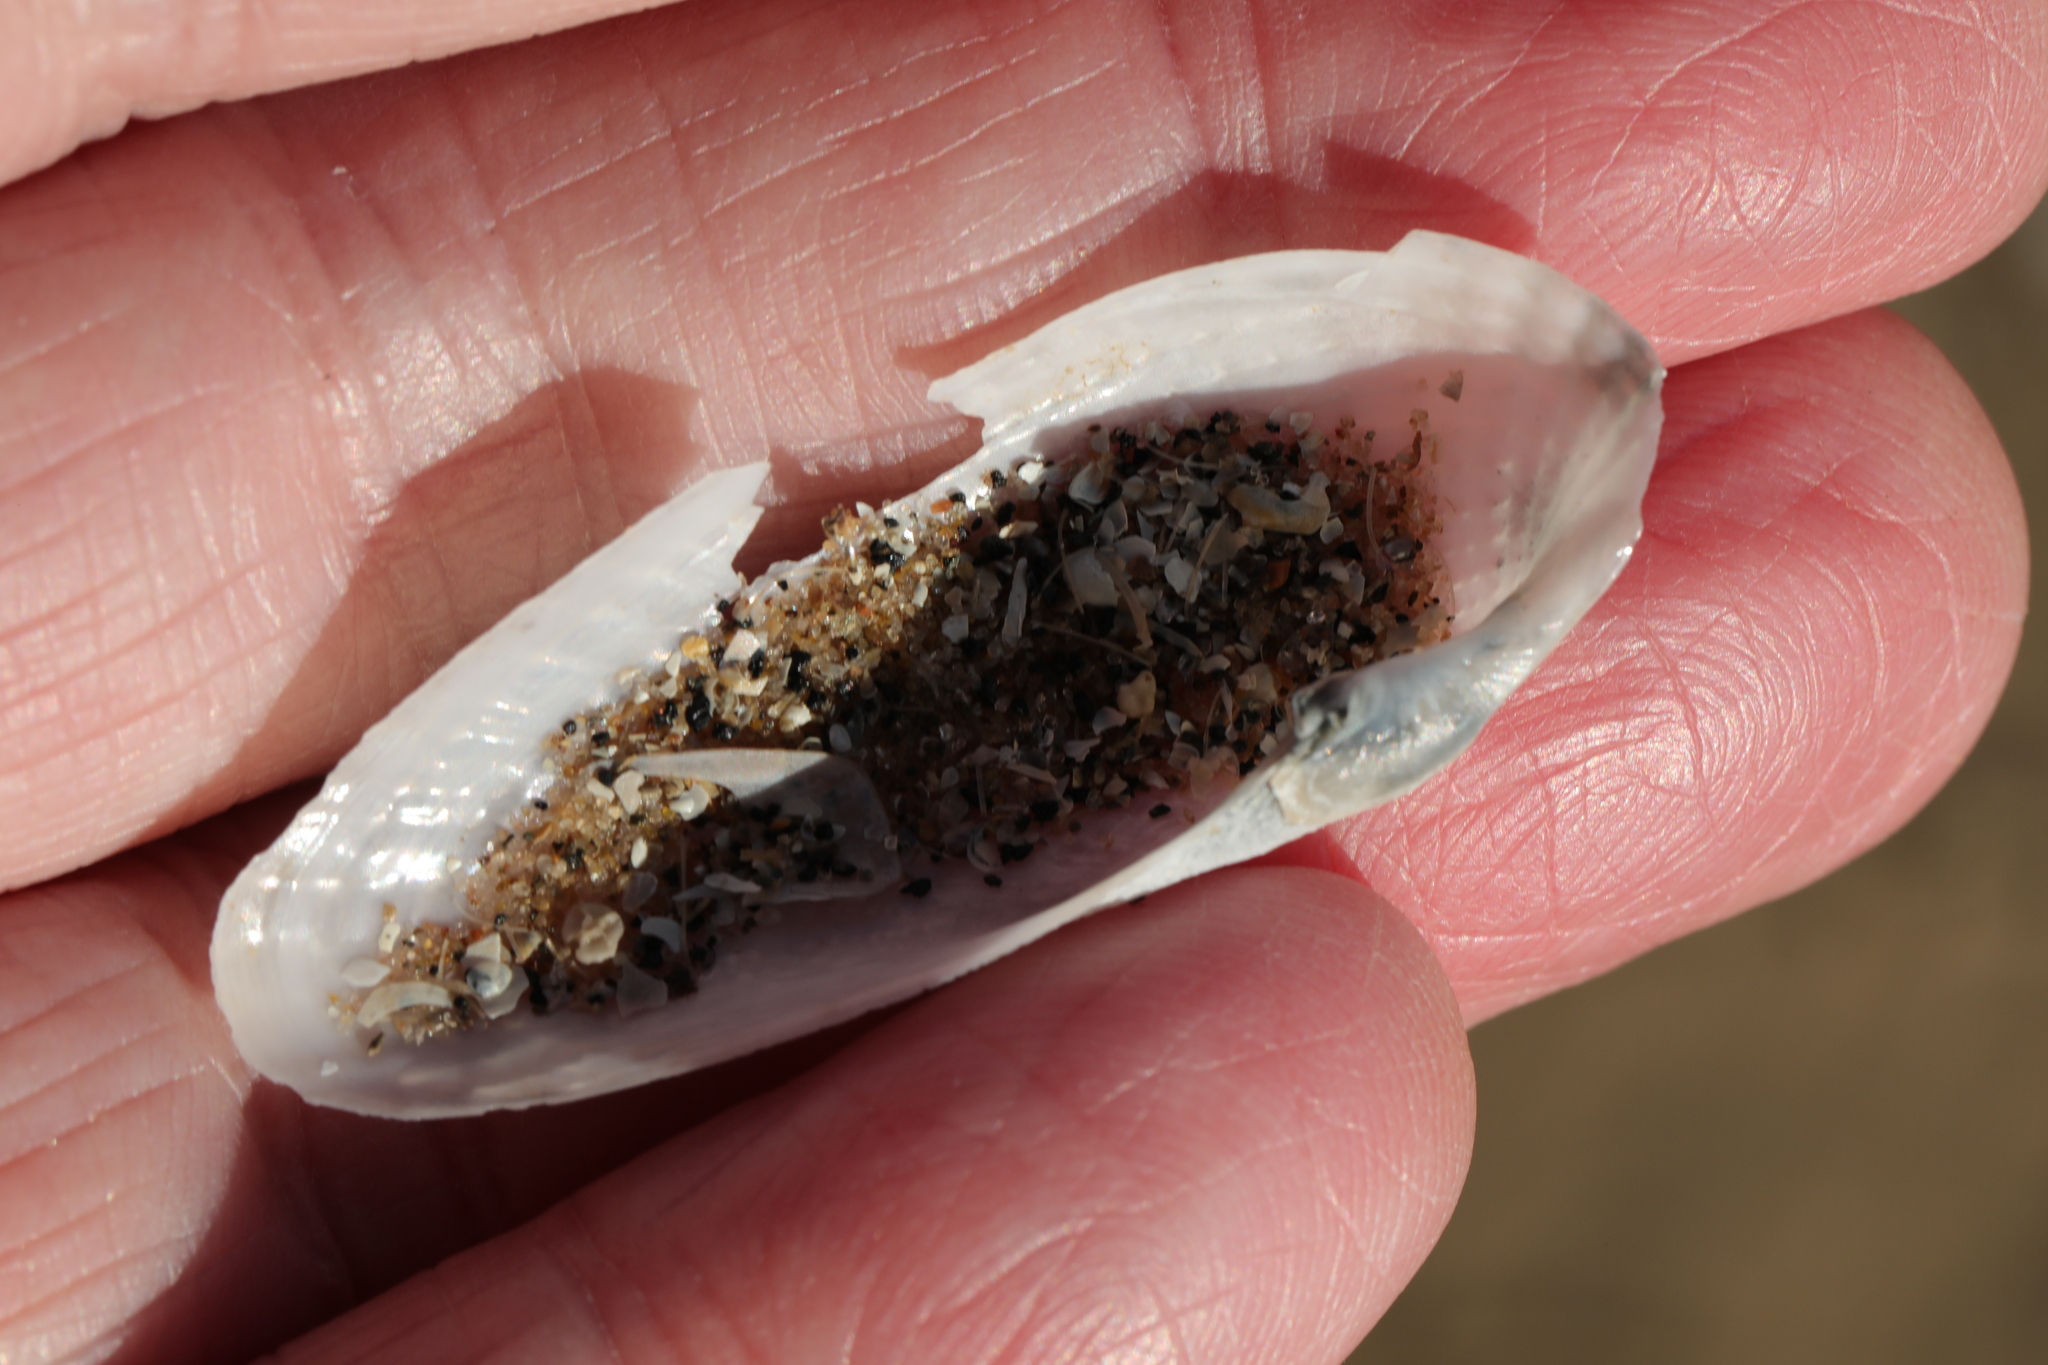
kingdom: Animalia
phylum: Mollusca
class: Bivalvia
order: Myida
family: Pholadidae
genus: Barnea
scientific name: Barnea candida
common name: White piddock
